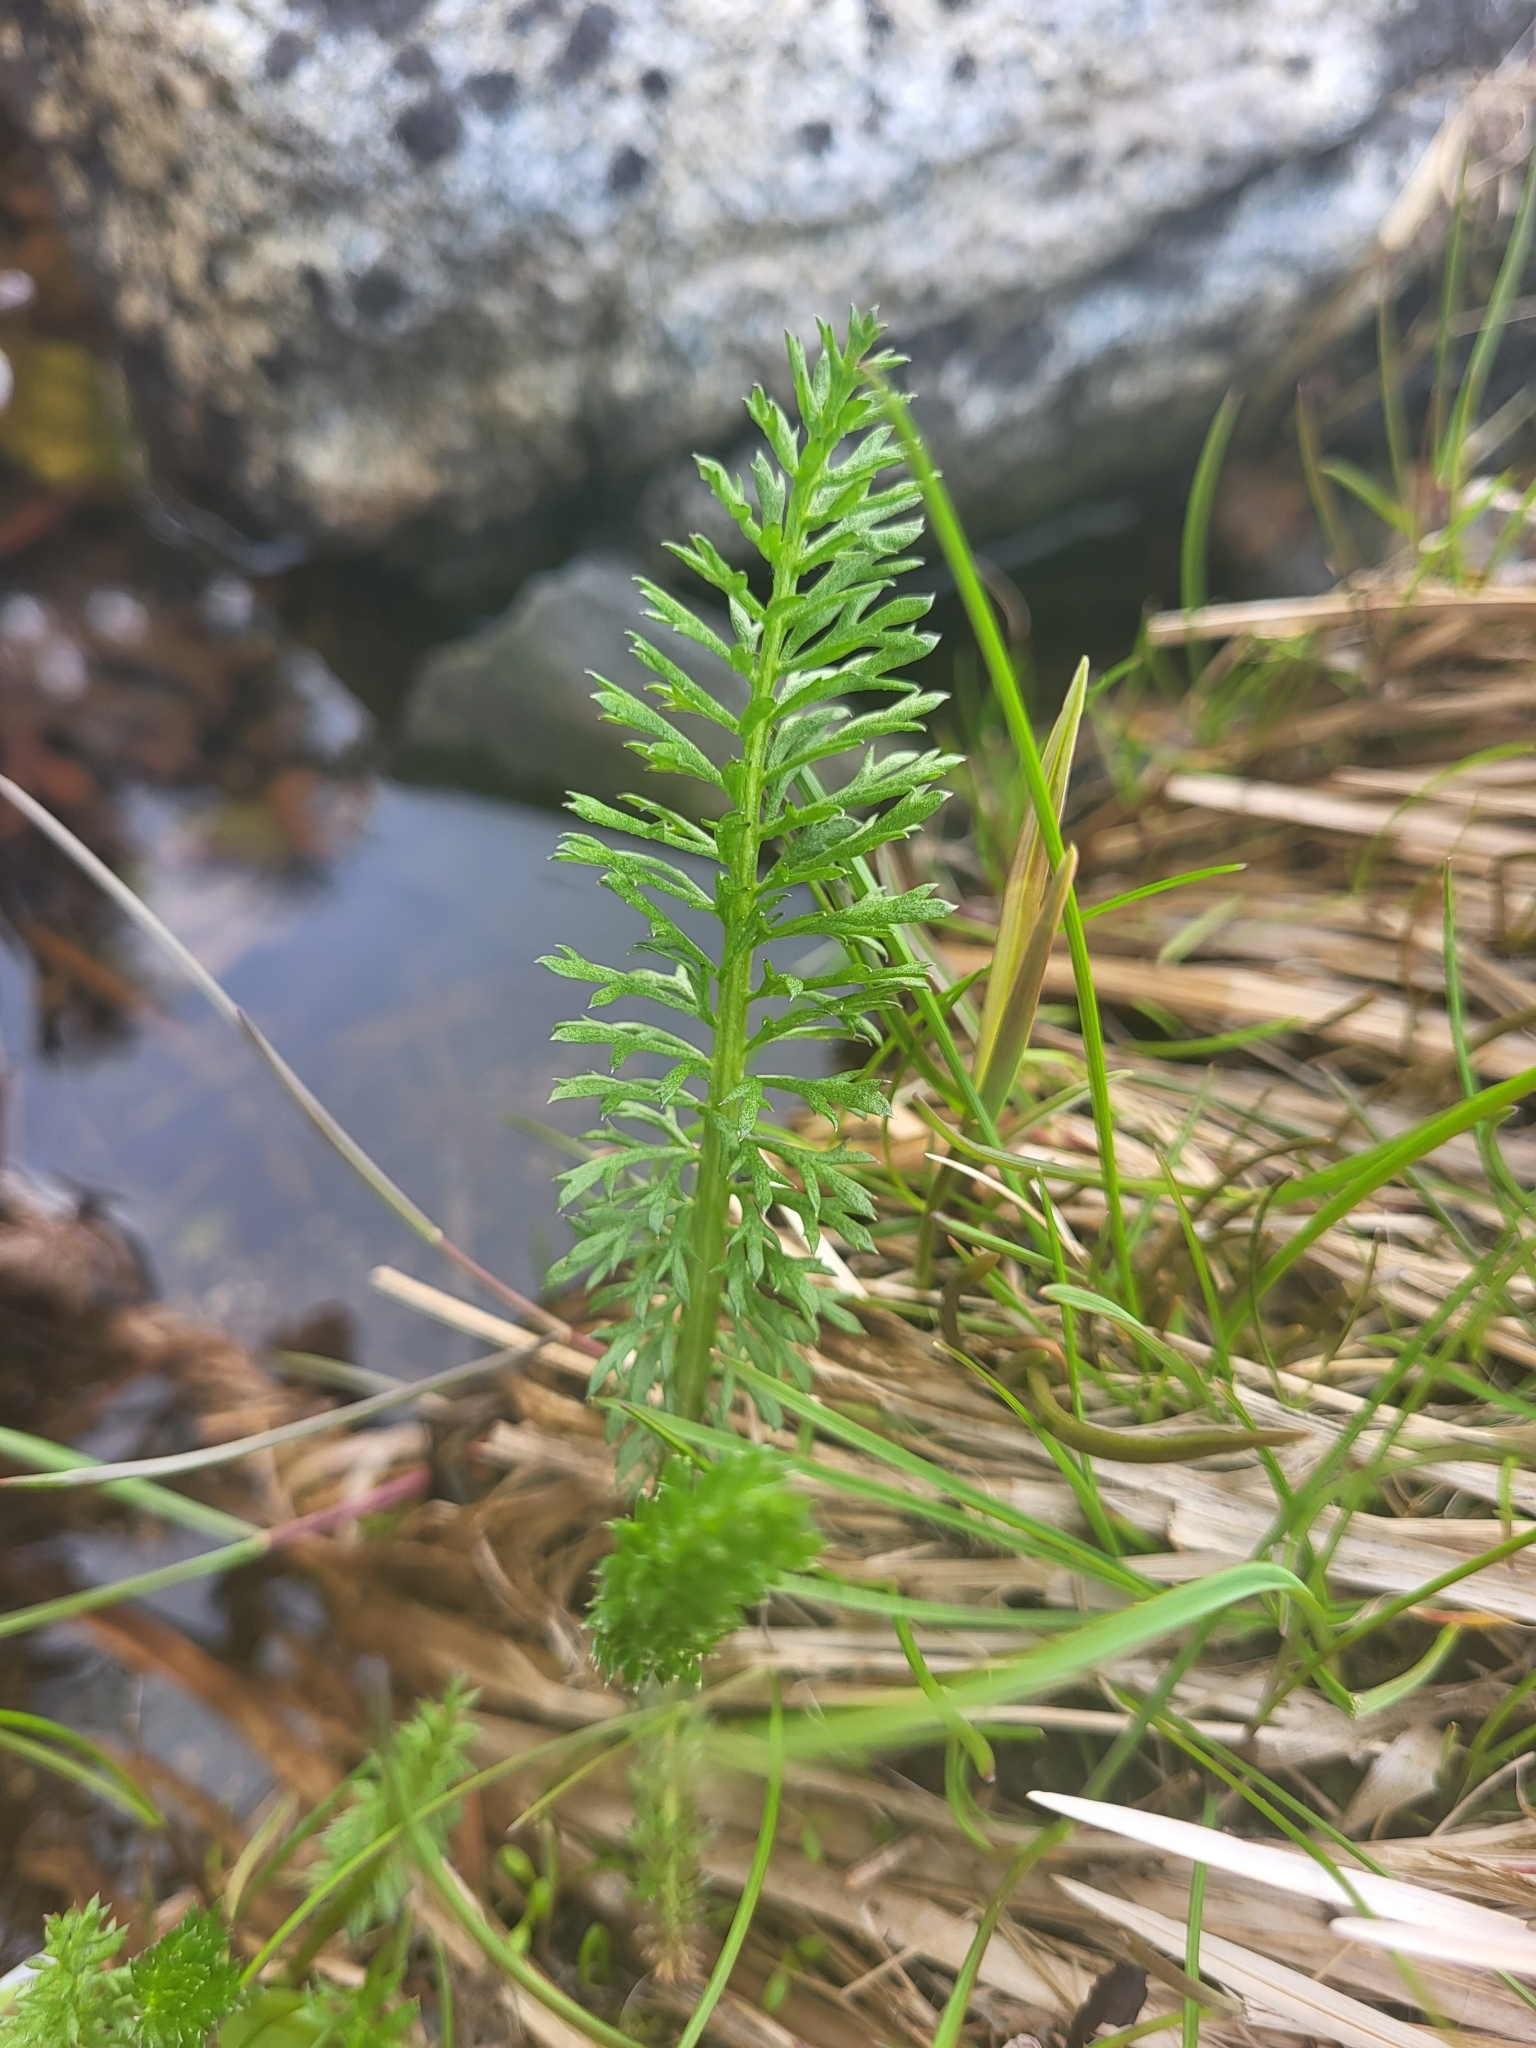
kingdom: Plantae
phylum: Tracheophyta
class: Magnoliopsida
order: Asterales
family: Asteraceae
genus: Achillea
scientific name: Achillea millefolium
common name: Yarrow
